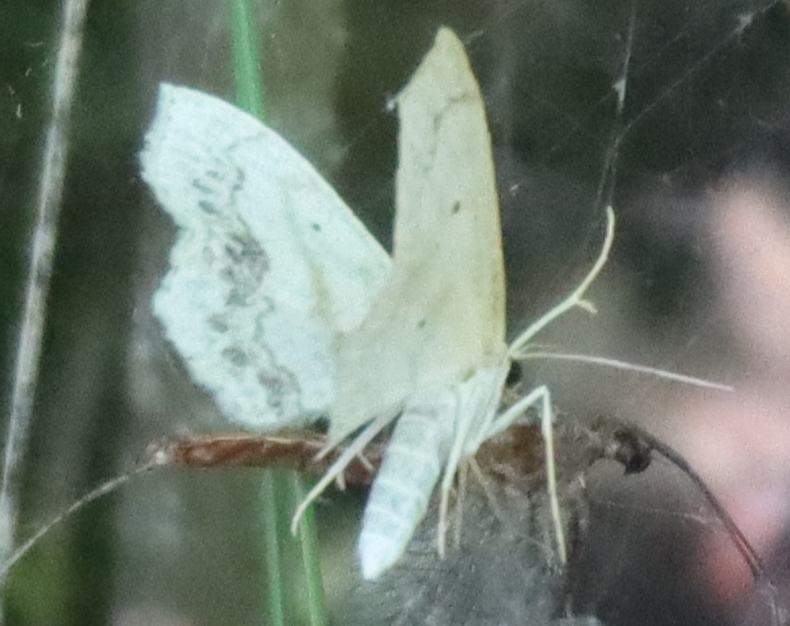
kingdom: Animalia
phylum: Arthropoda
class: Insecta
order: Lepidoptera
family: Geometridae
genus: Scopula
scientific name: Scopula limboundata
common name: Large lace border
